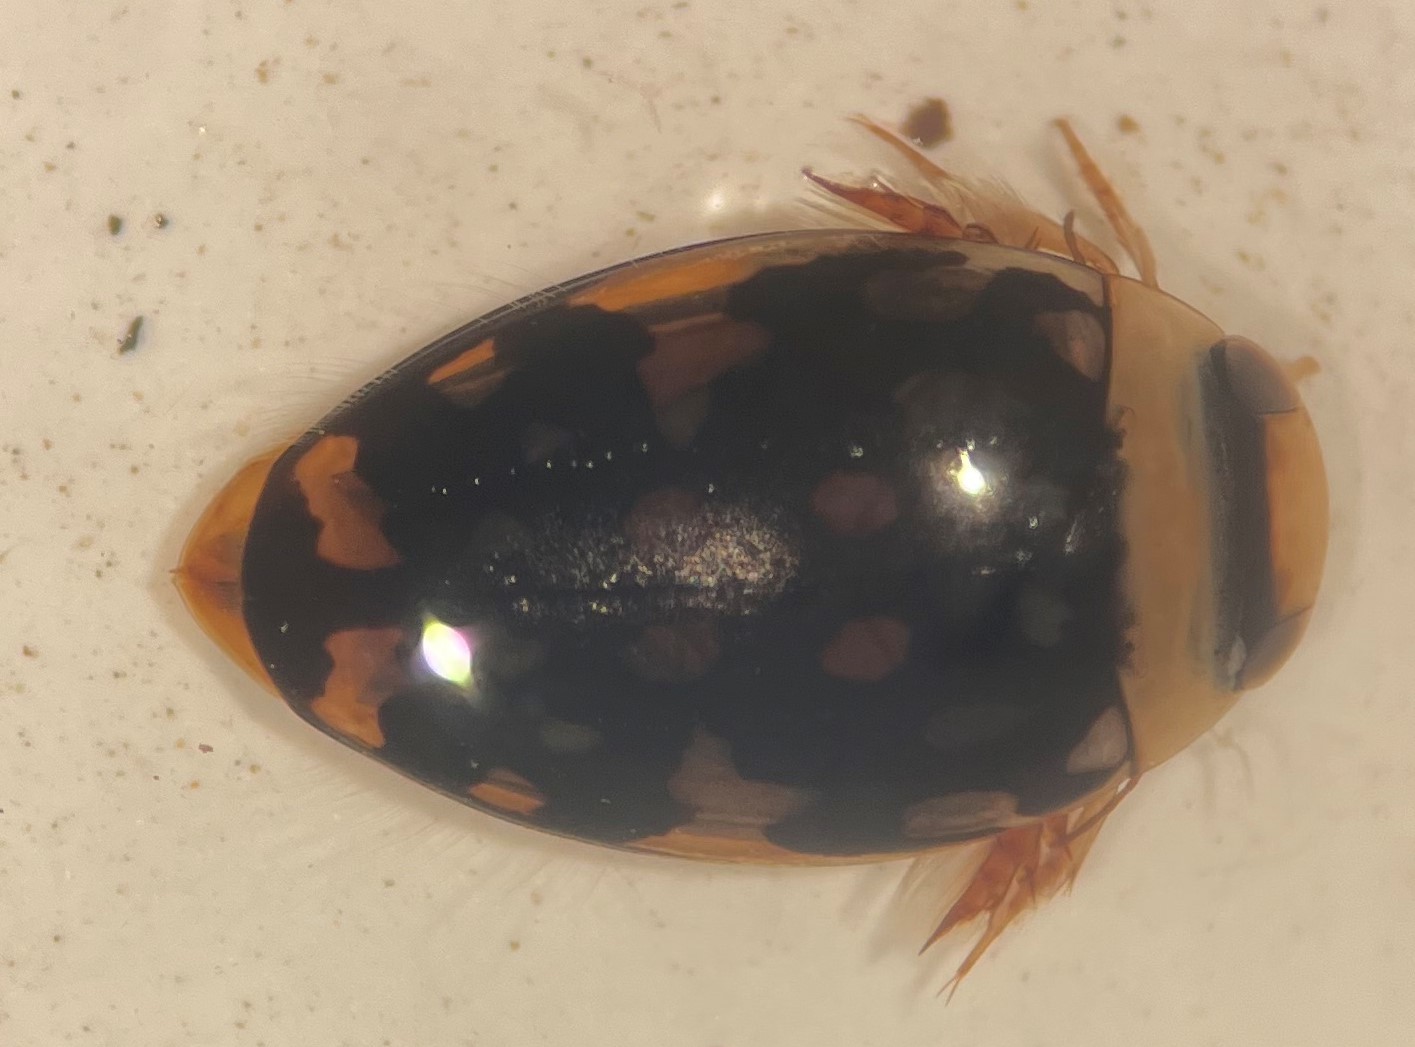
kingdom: Animalia
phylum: Arthropoda
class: Insecta
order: Coleoptera
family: Dytiscidae
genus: Laccophilus
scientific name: Laccophilus pictus
